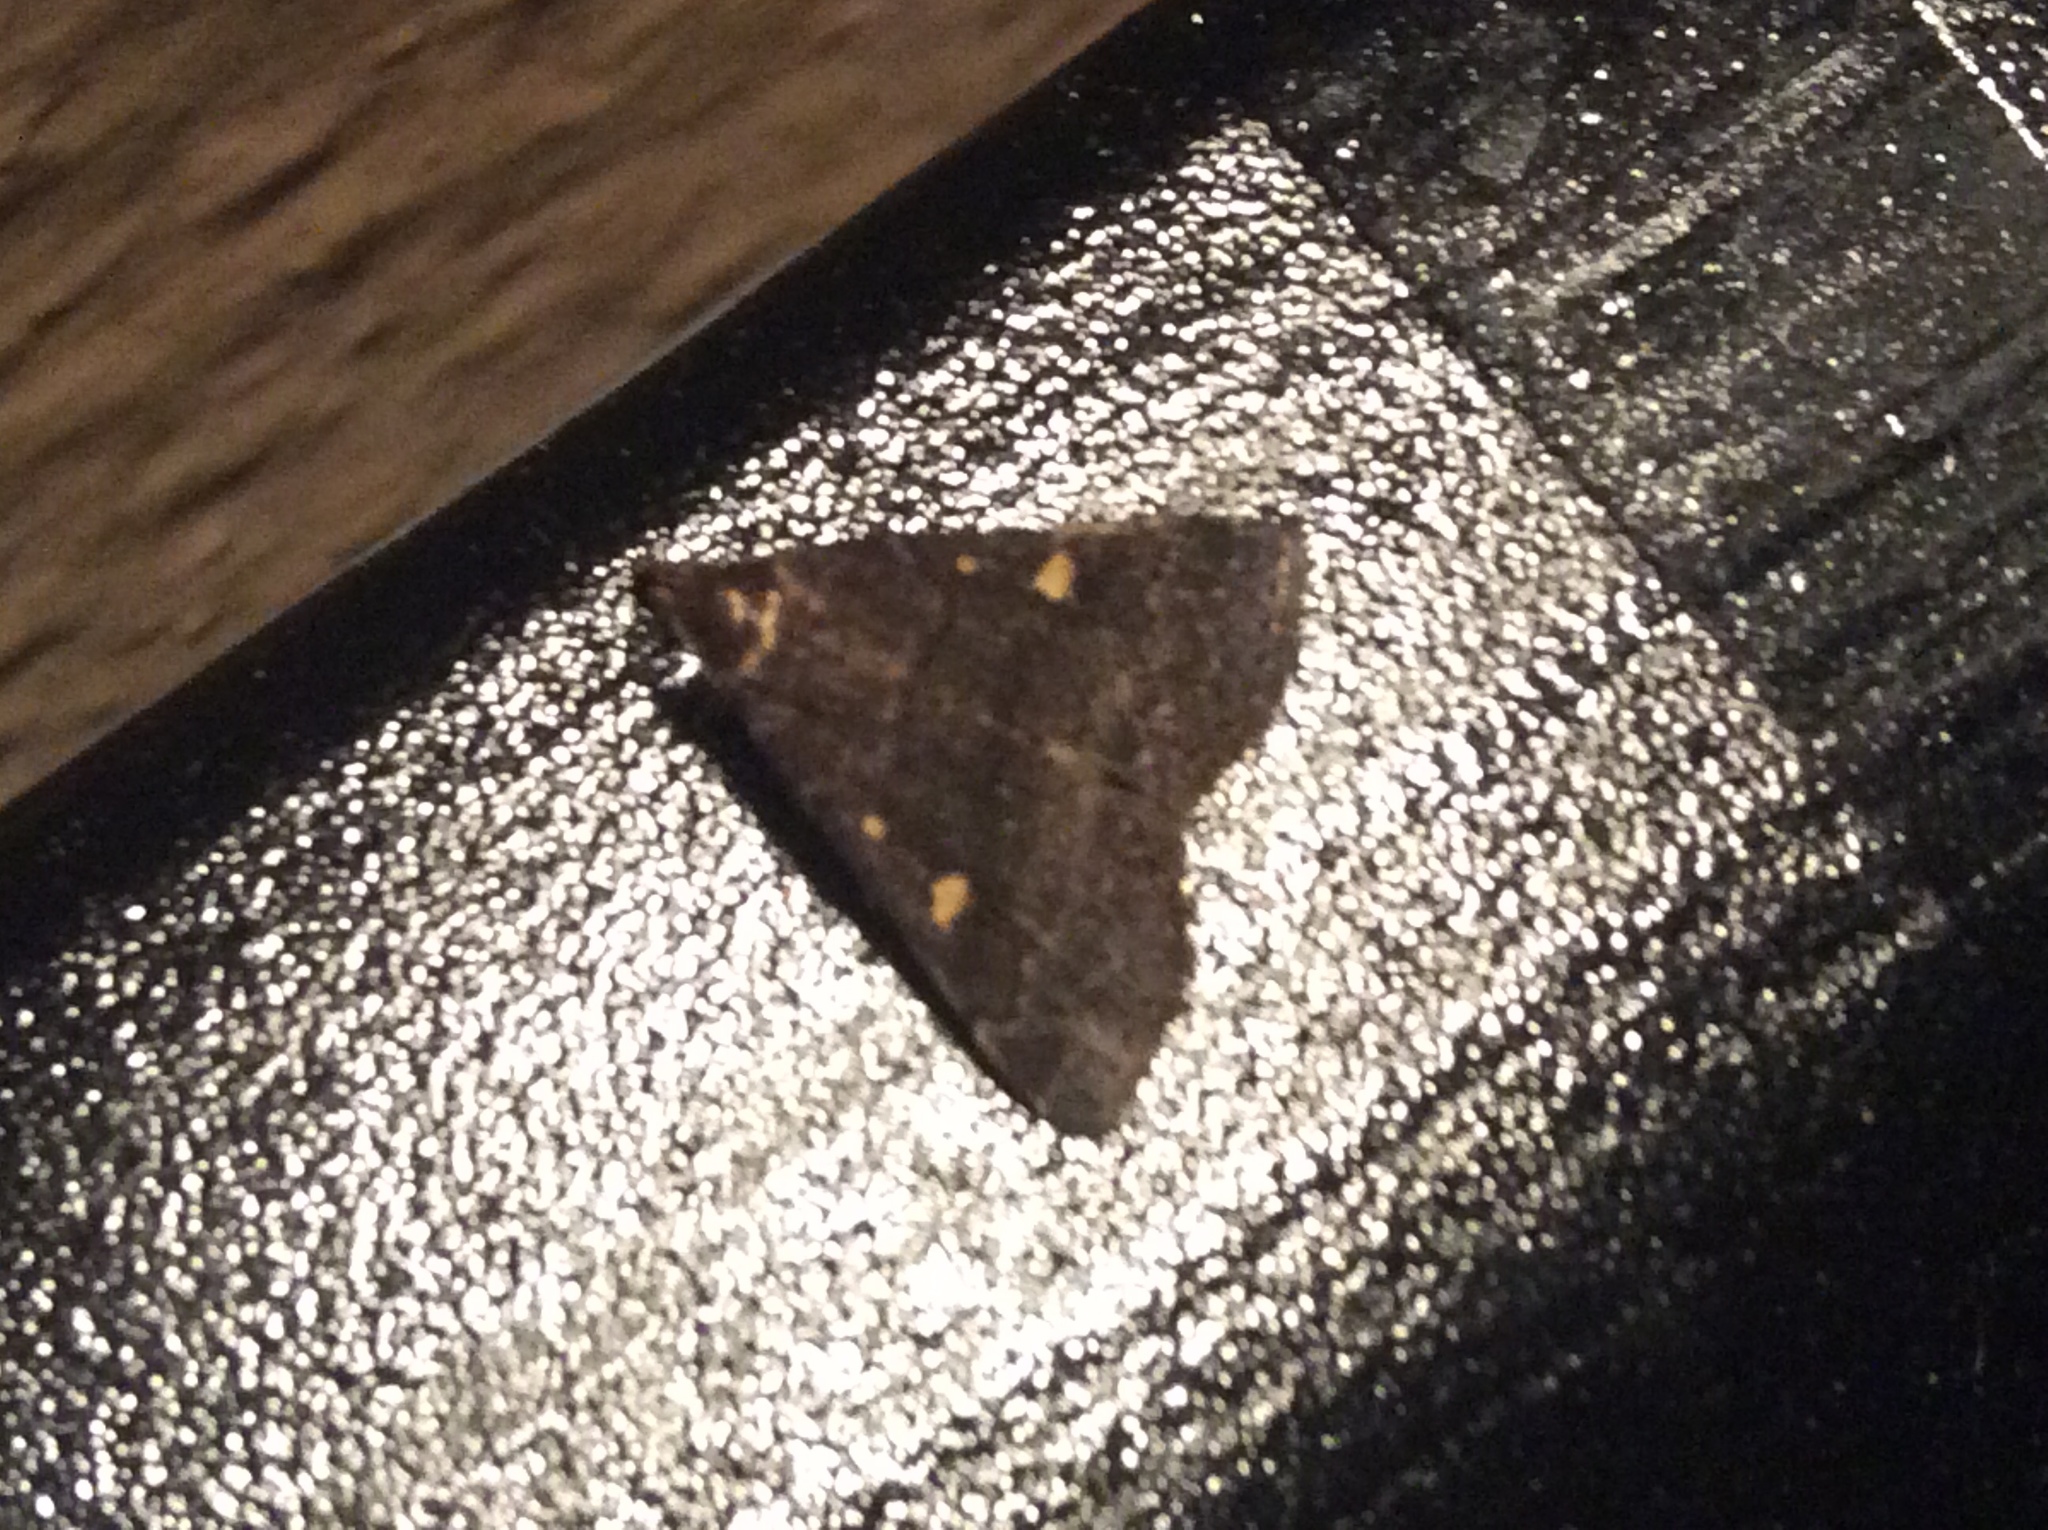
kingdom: Animalia
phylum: Arthropoda
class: Insecta
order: Lepidoptera
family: Erebidae
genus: Tetanolita
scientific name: Tetanolita mynesalis
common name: Smoky tetanolita moth
